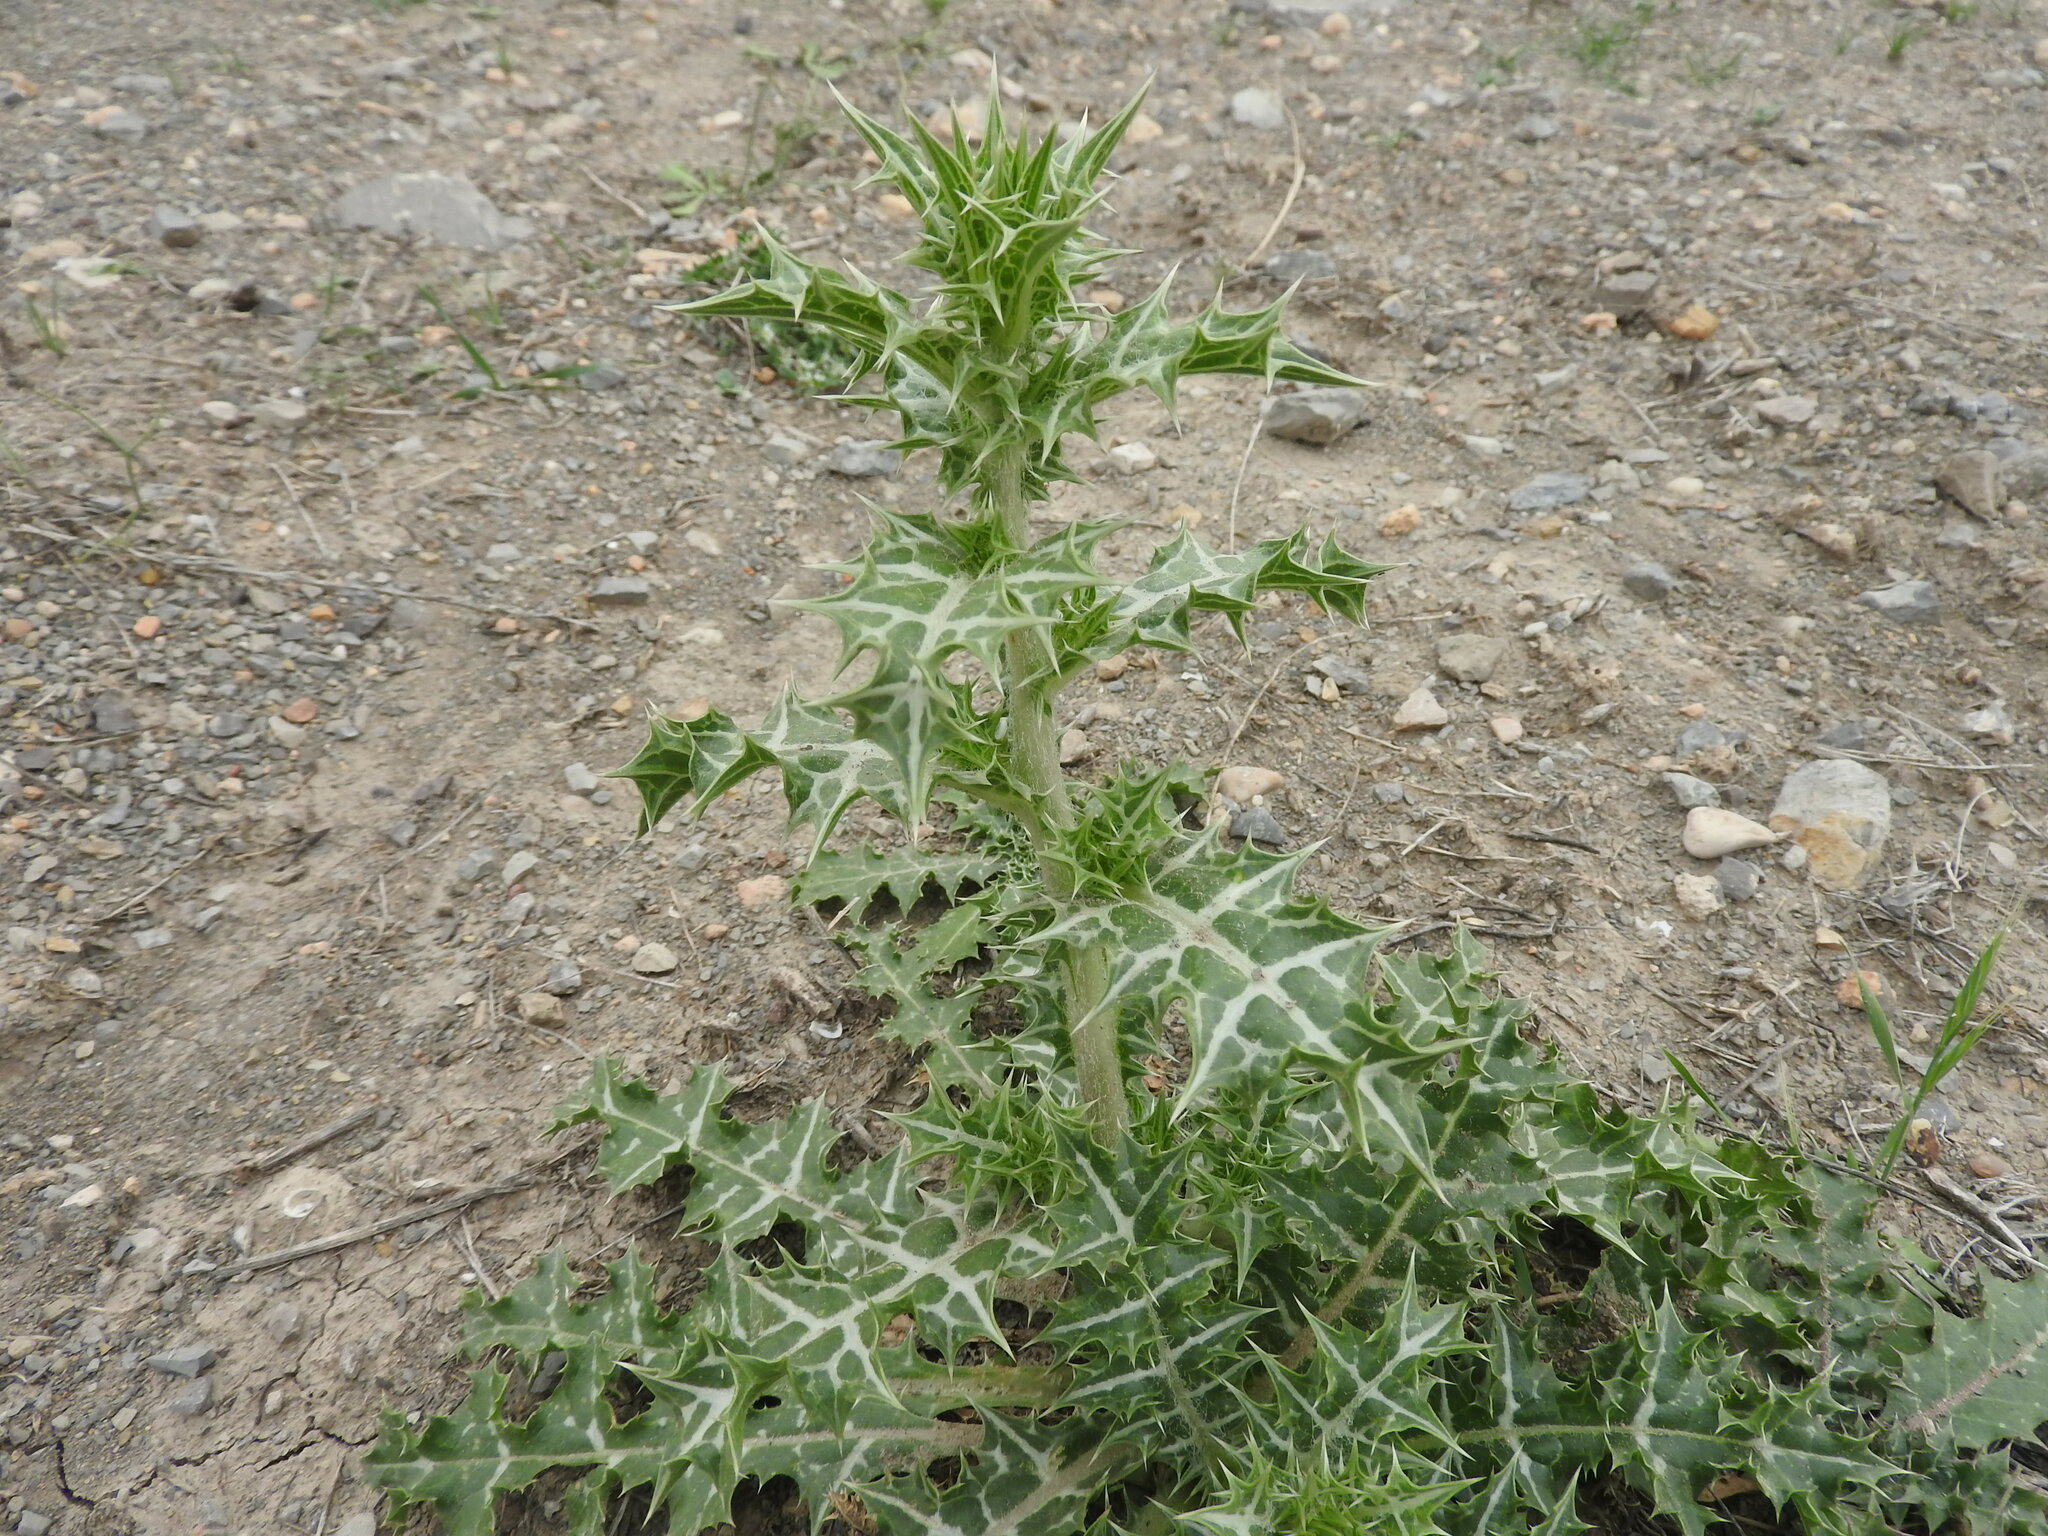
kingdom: Plantae
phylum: Tracheophyta
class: Magnoliopsida
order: Asterales
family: Asteraceae
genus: Scolymus
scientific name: Scolymus hispanicus
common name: Golden thistle
